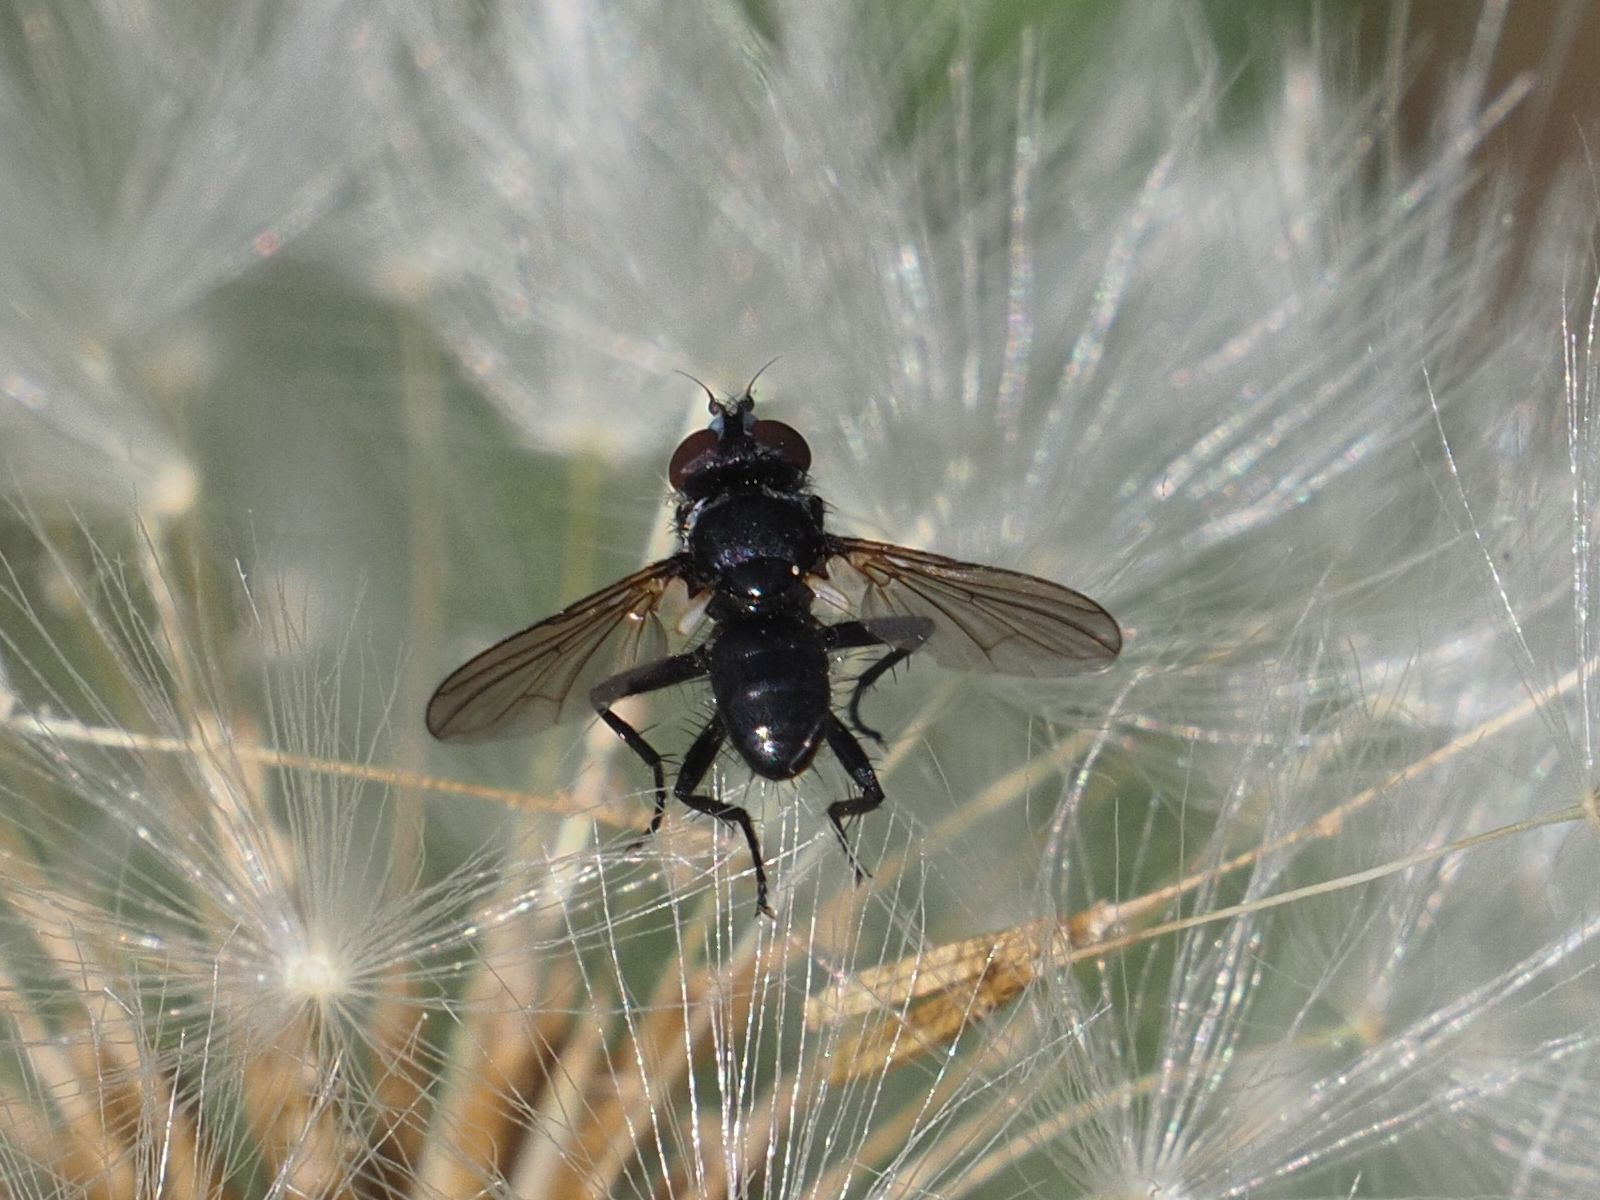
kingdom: Animalia
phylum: Arthropoda
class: Insecta
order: Diptera
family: Tachinidae
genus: Phania
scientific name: Phania funesta
